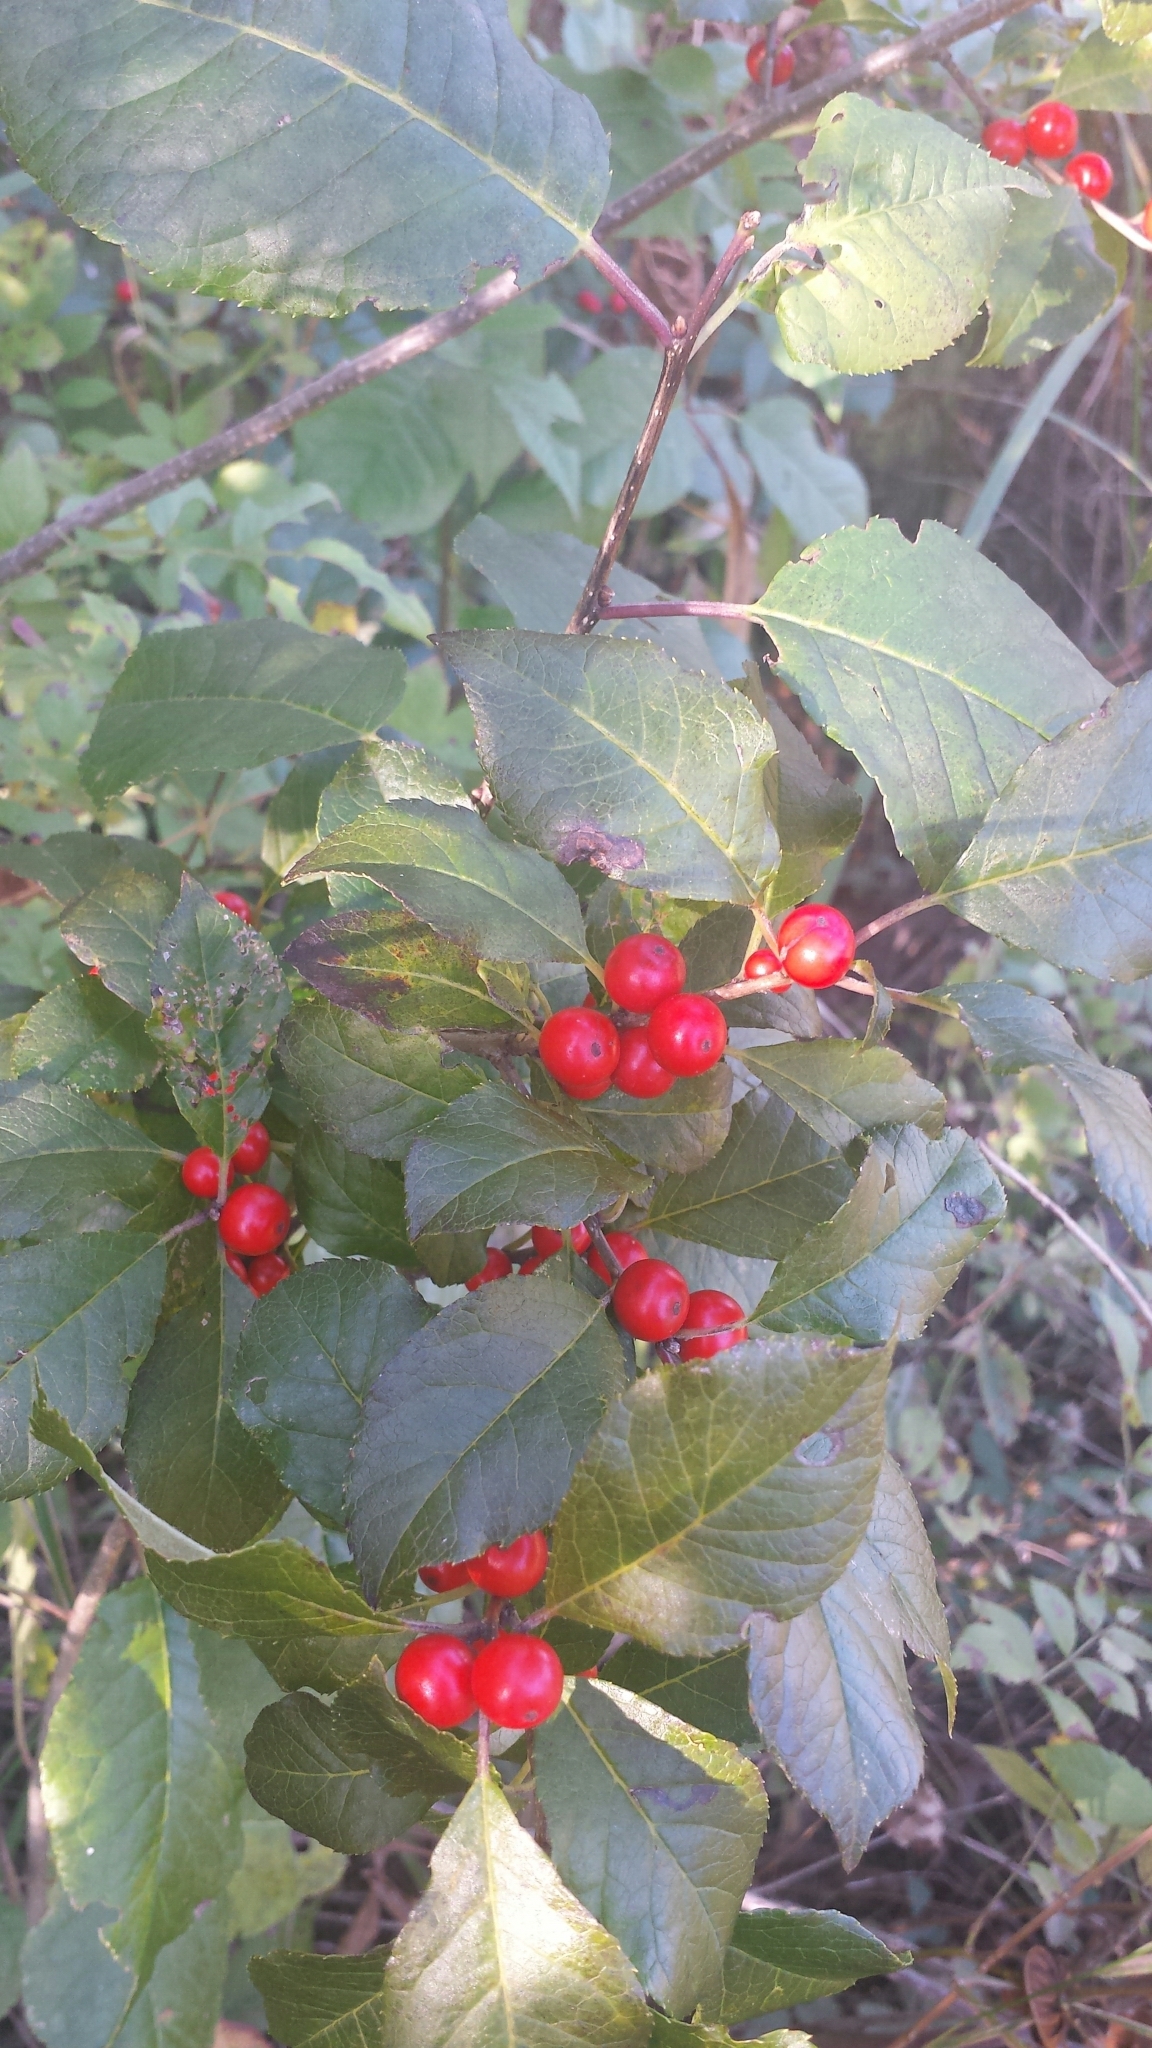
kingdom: Plantae
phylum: Tracheophyta
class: Magnoliopsida
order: Aquifoliales
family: Aquifoliaceae
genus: Ilex
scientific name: Ilex verticillata
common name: Virginia winterberry
